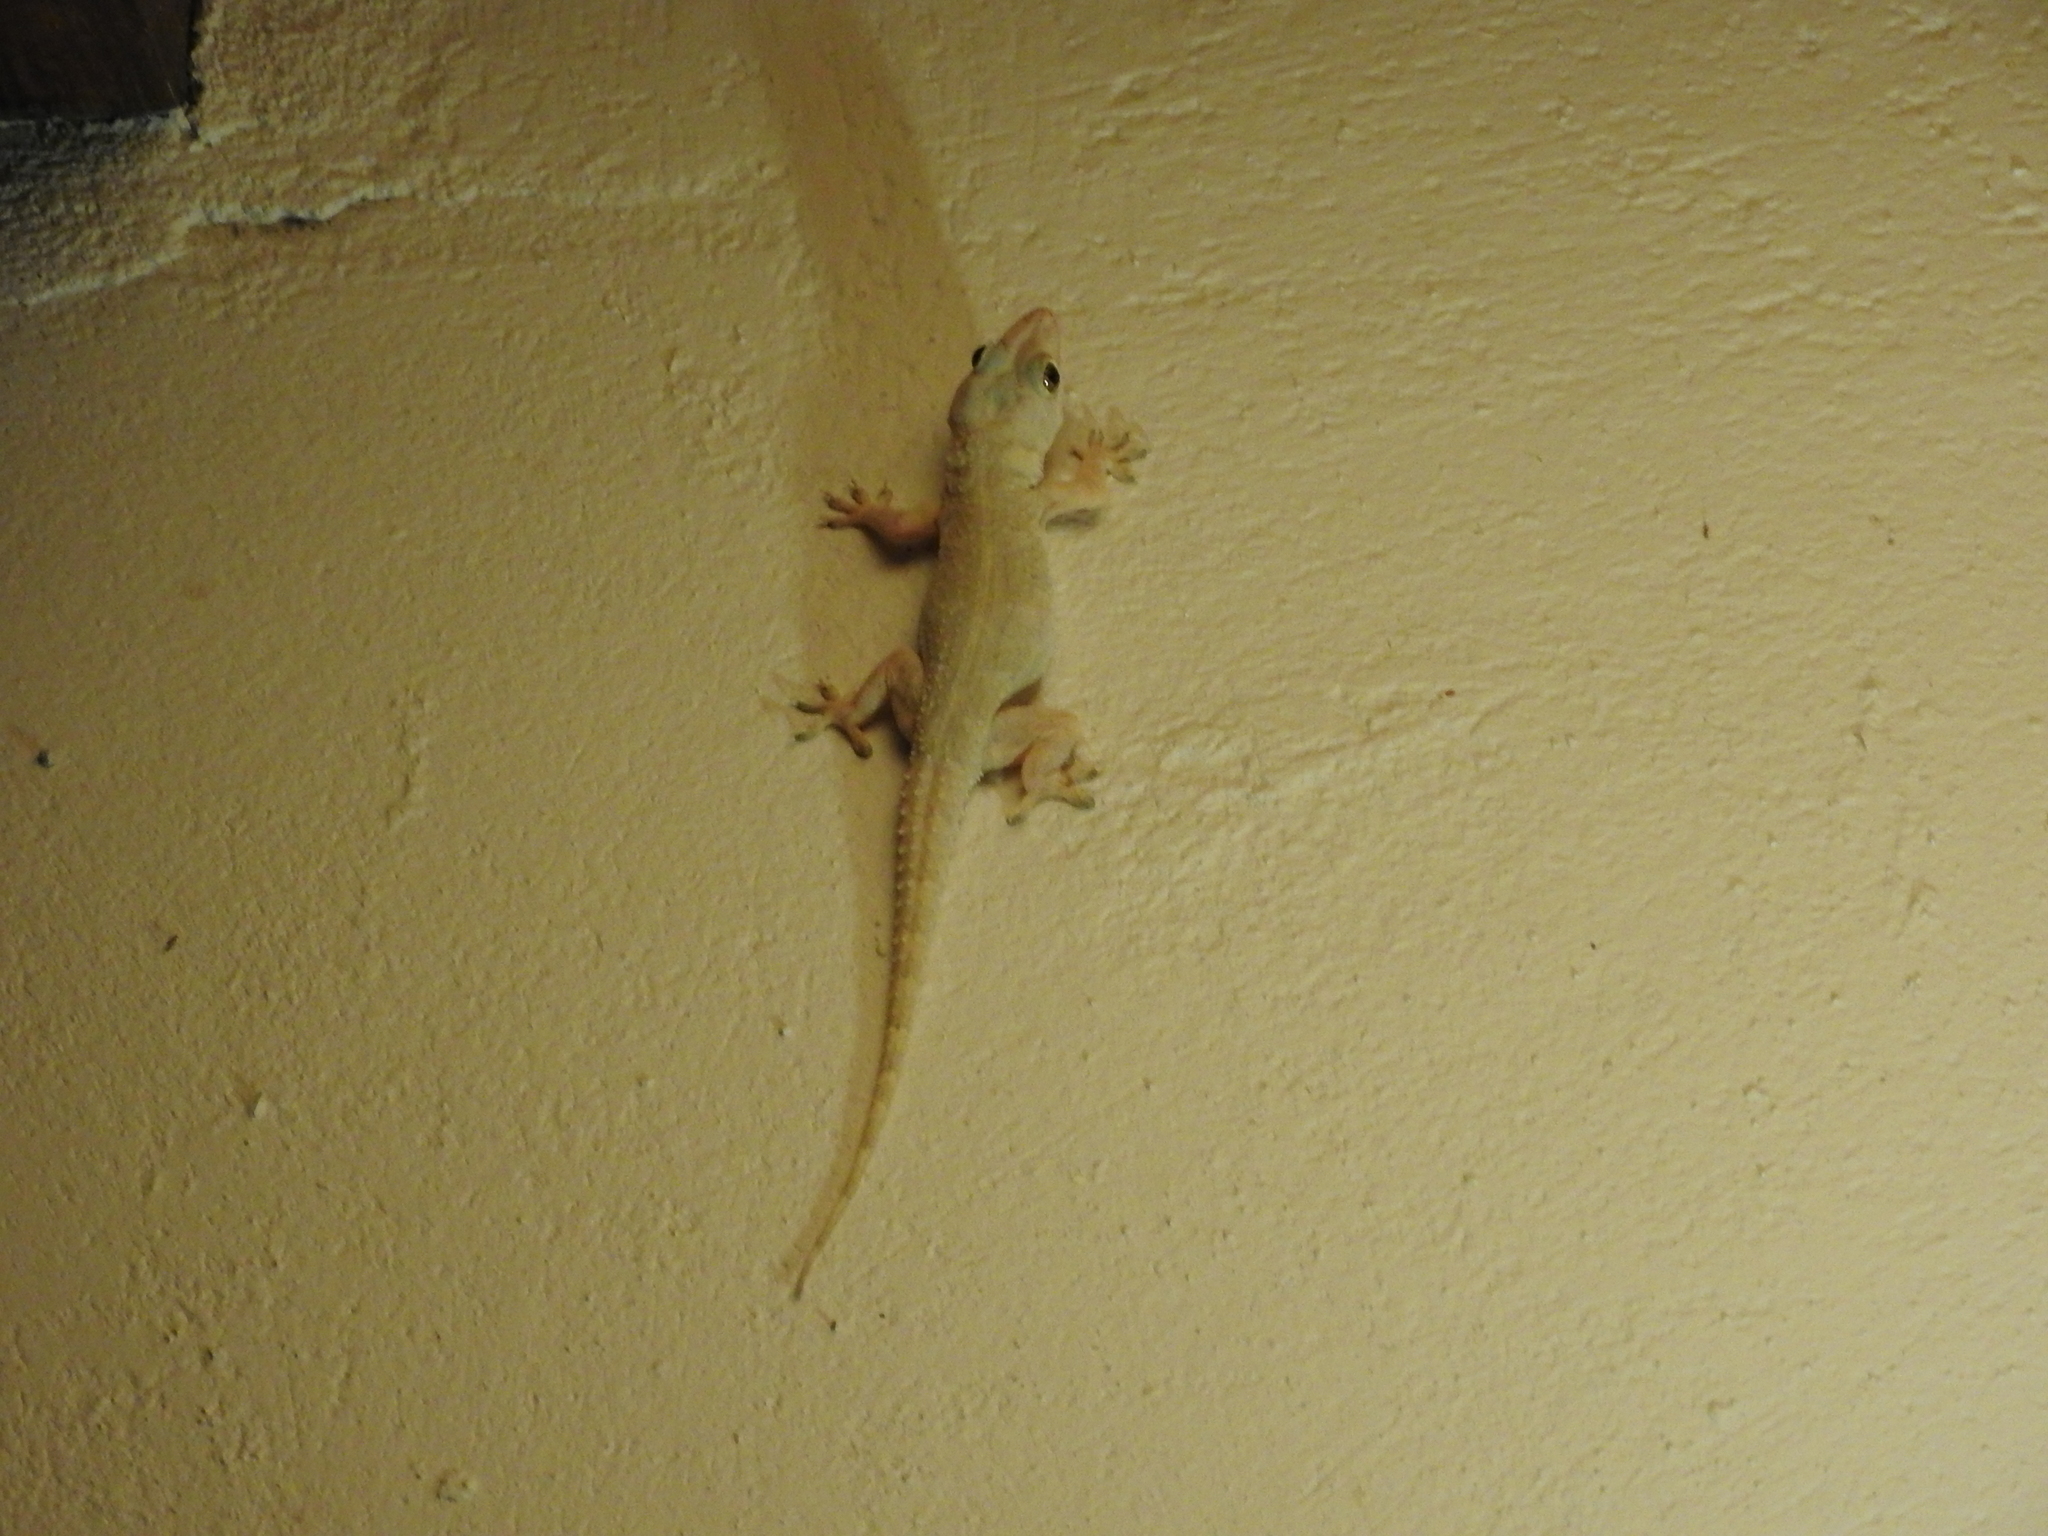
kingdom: Animalia
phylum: Chordata
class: Squamata
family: Gekkonidae
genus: Hemidactylus
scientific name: Hemidactylus mabouia
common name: House gecko
